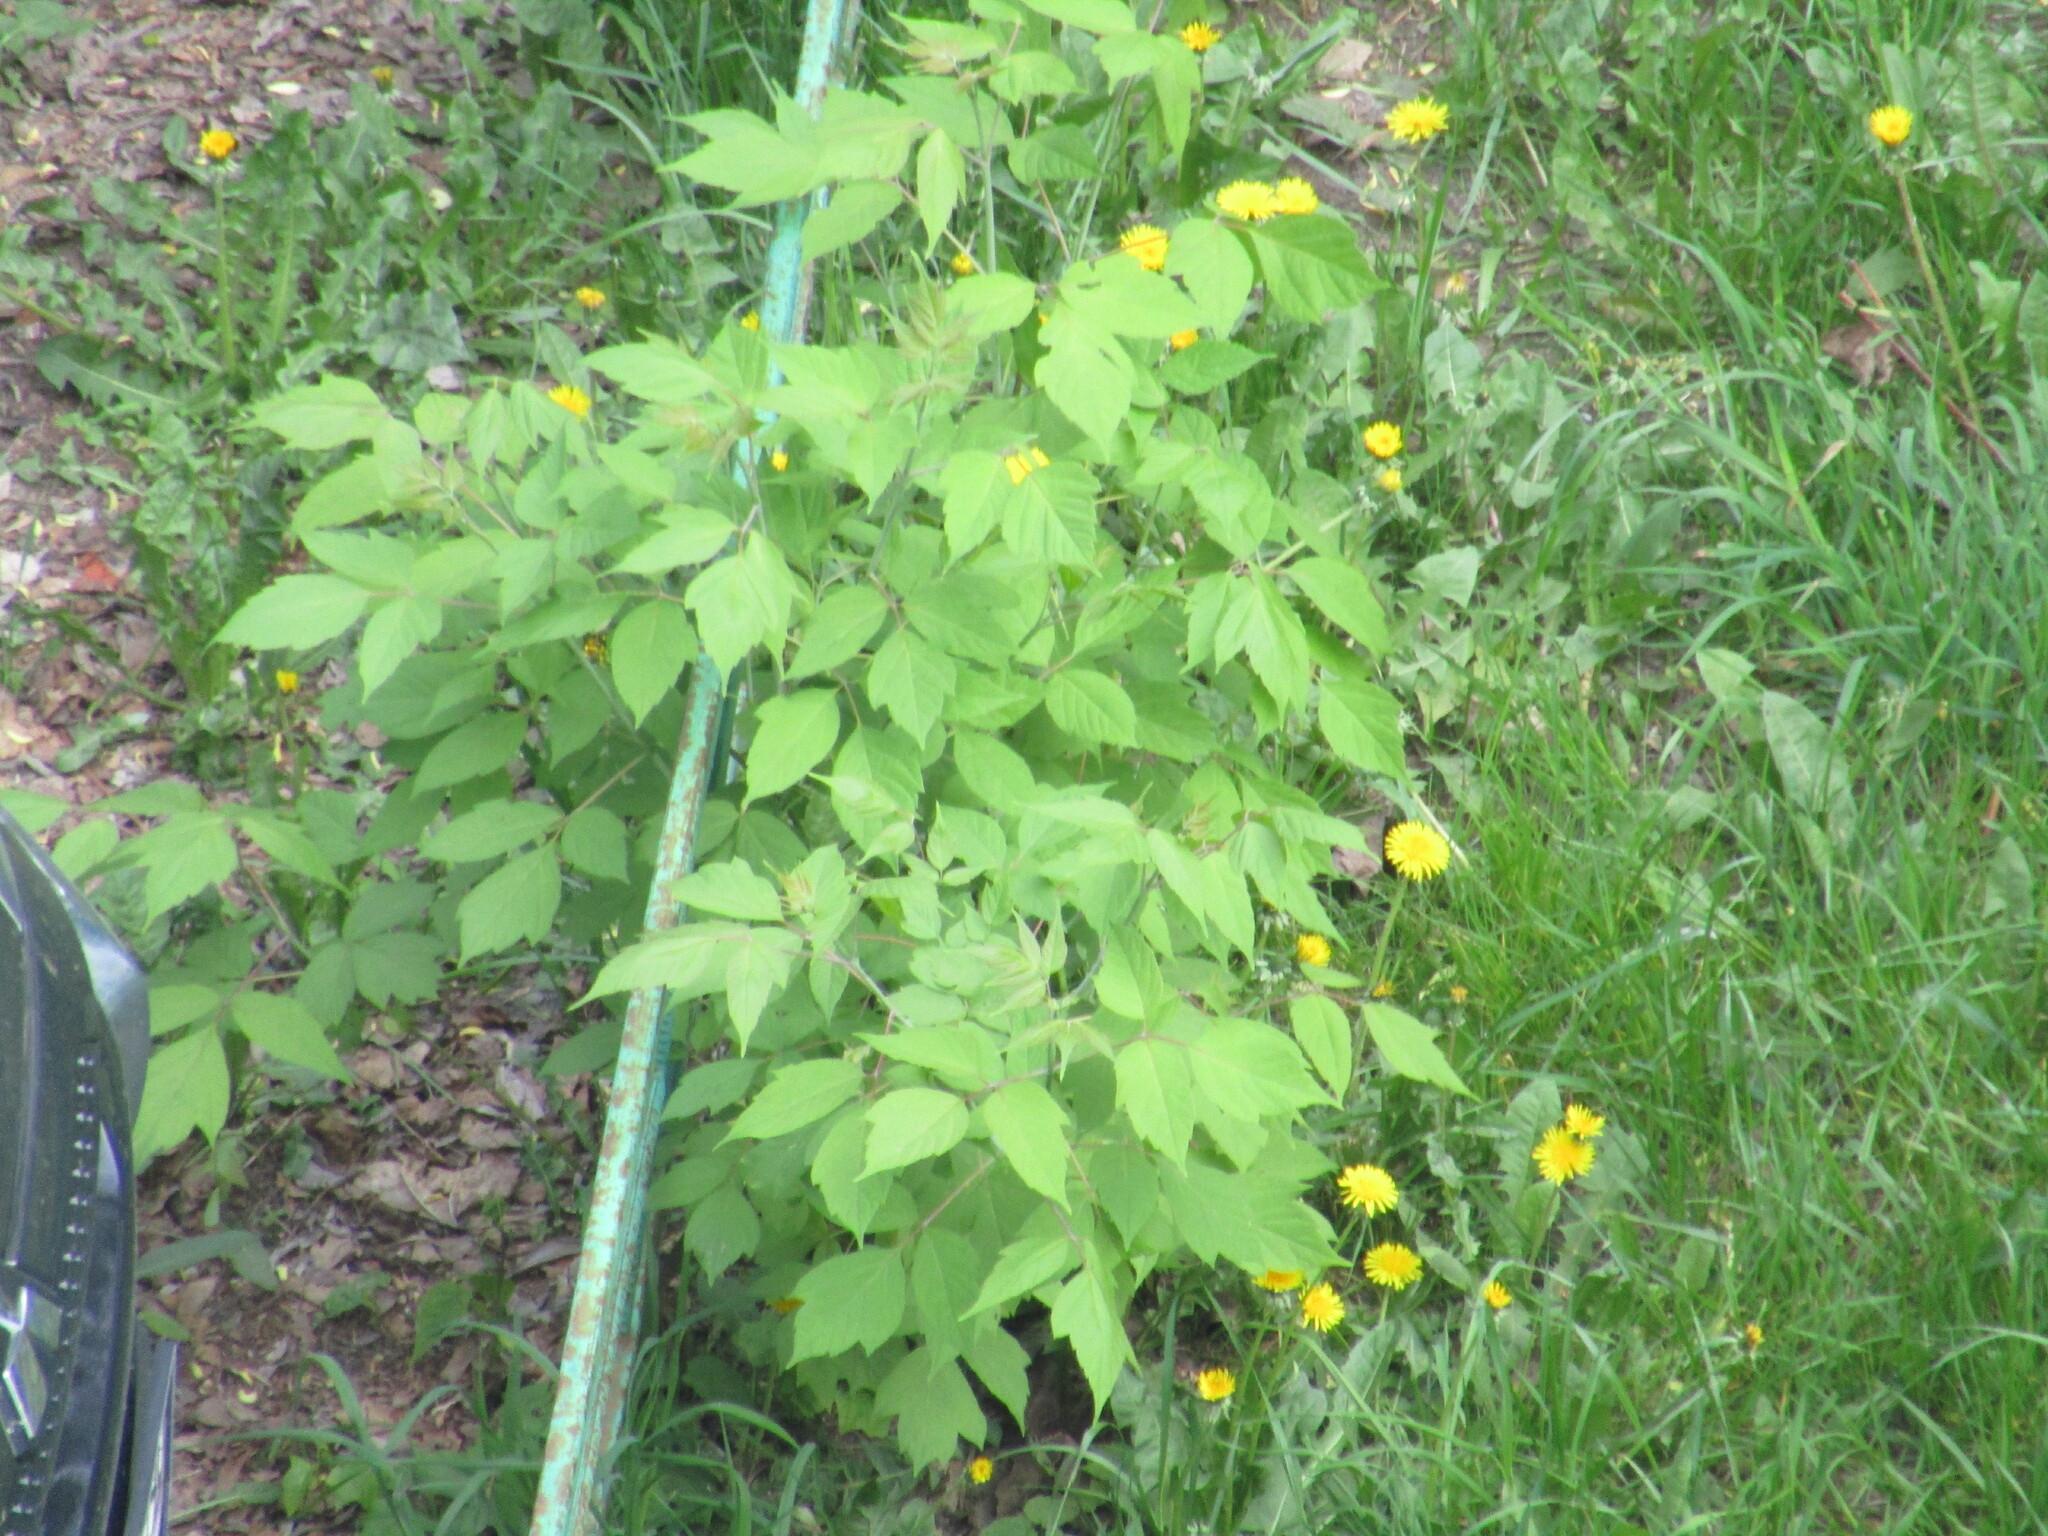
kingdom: Plantae
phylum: Tracheophyta
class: Magnoliopsida
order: Sapindales
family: Sapindaceae
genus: Acer
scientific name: Acer negundo
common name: Ashleaf maple
